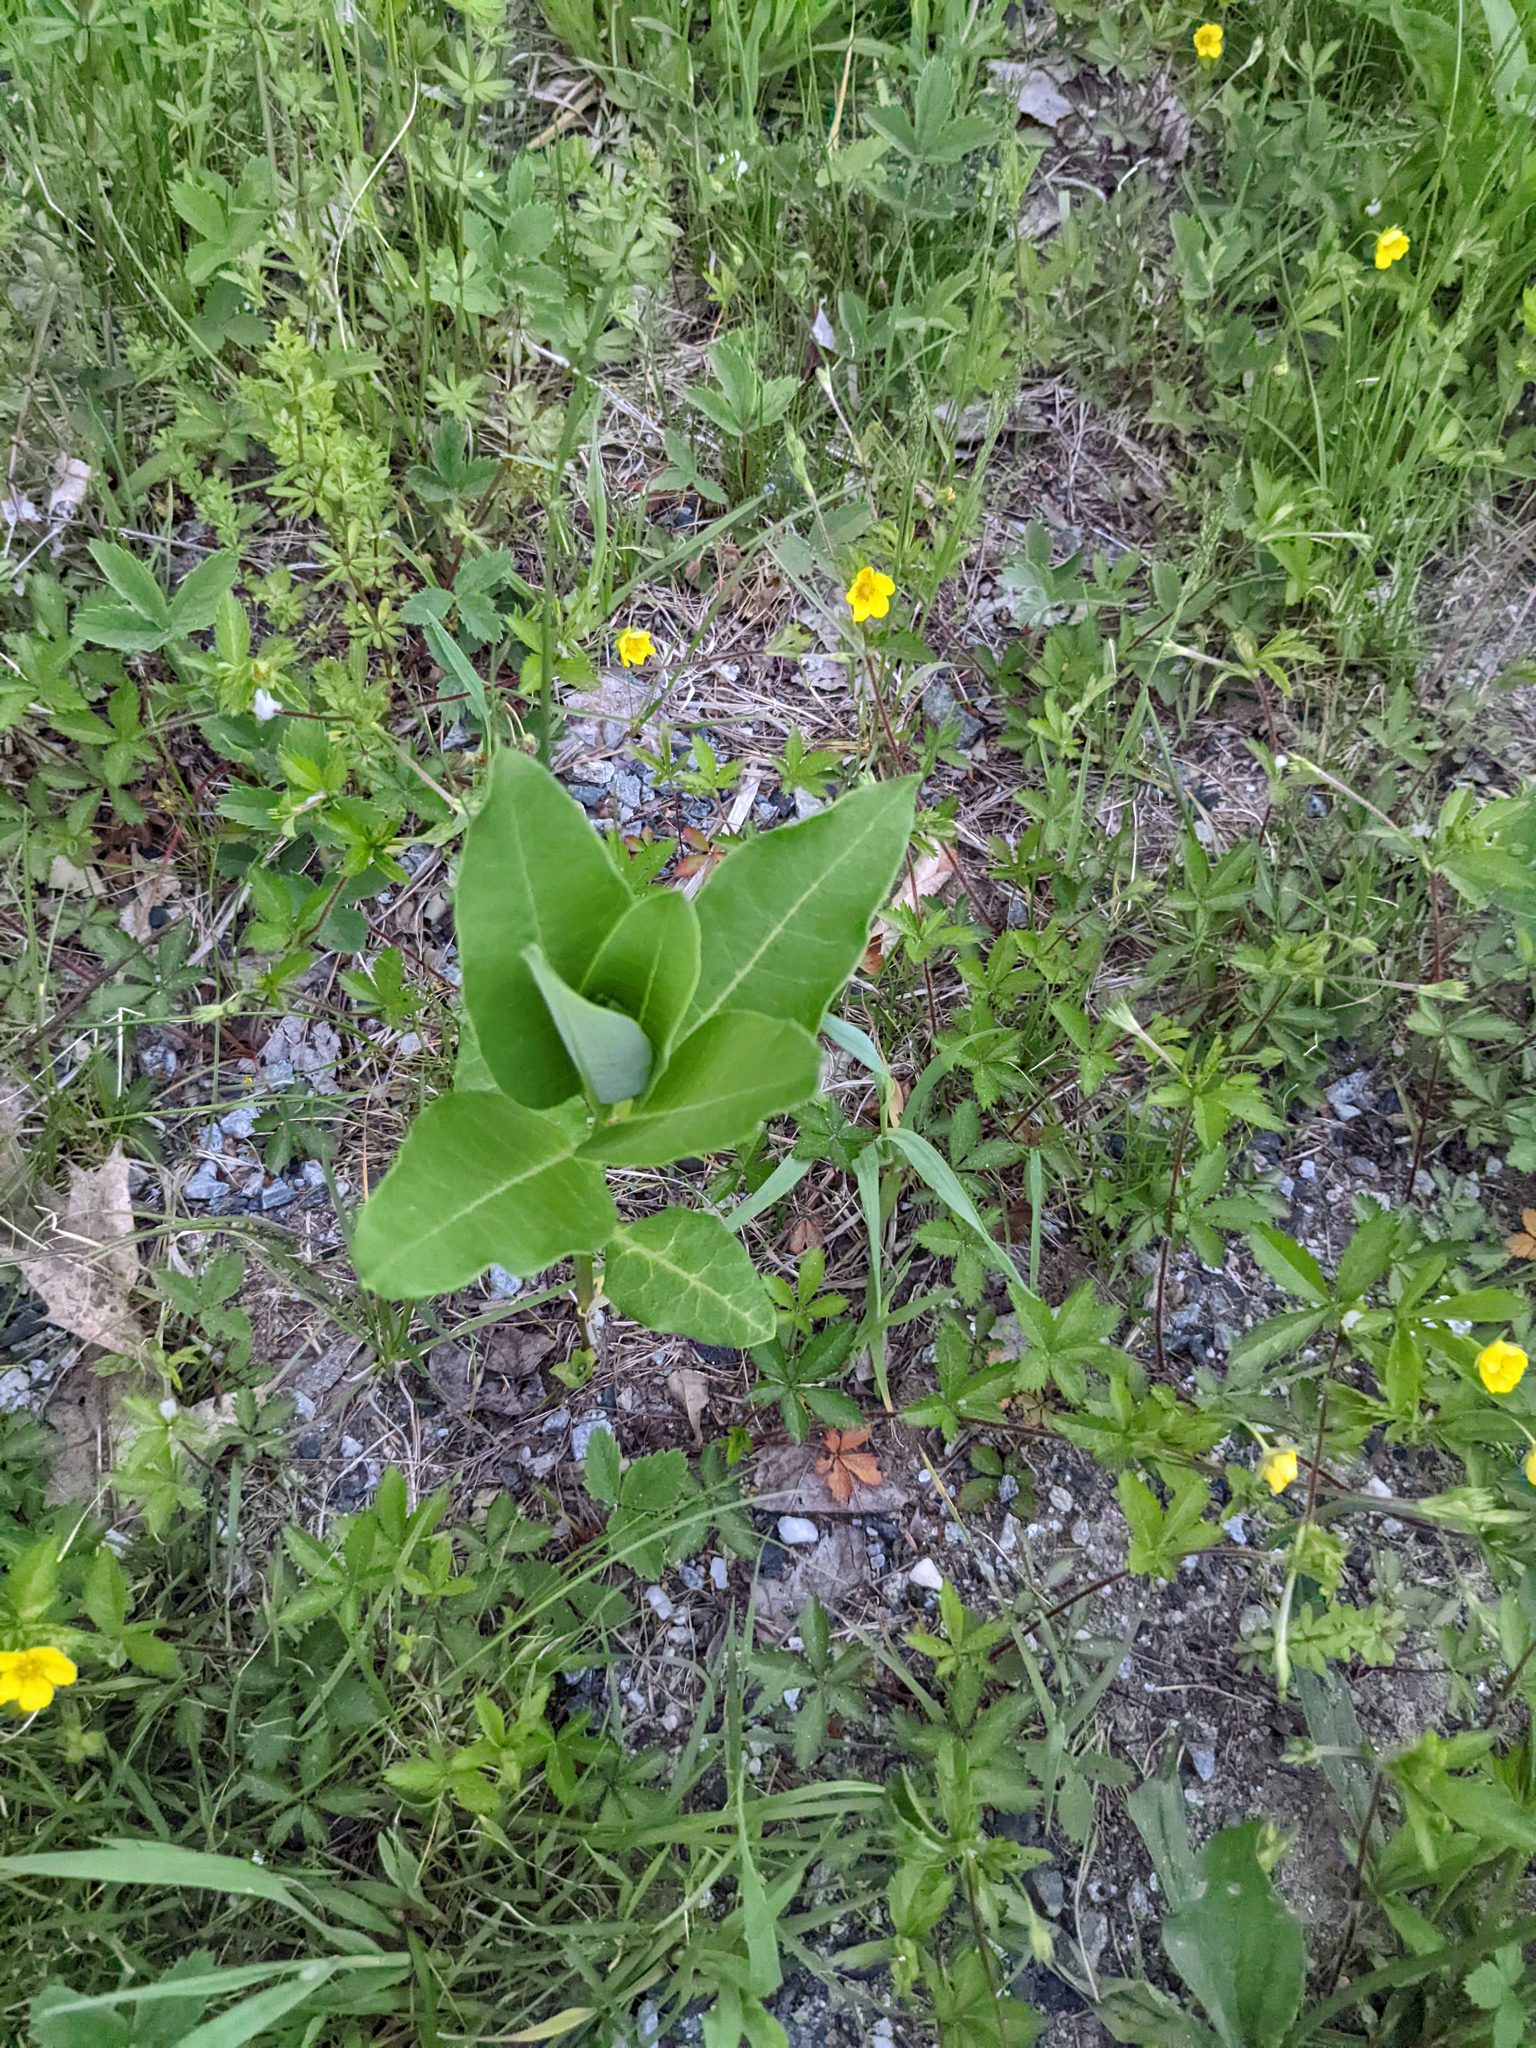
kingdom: Plantae
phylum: Tracheophyta
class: Magnoliopsida
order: Gentianales
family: Apocynaceae
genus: Asclepias
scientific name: Asclepias syriaca
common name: Common milkweed
